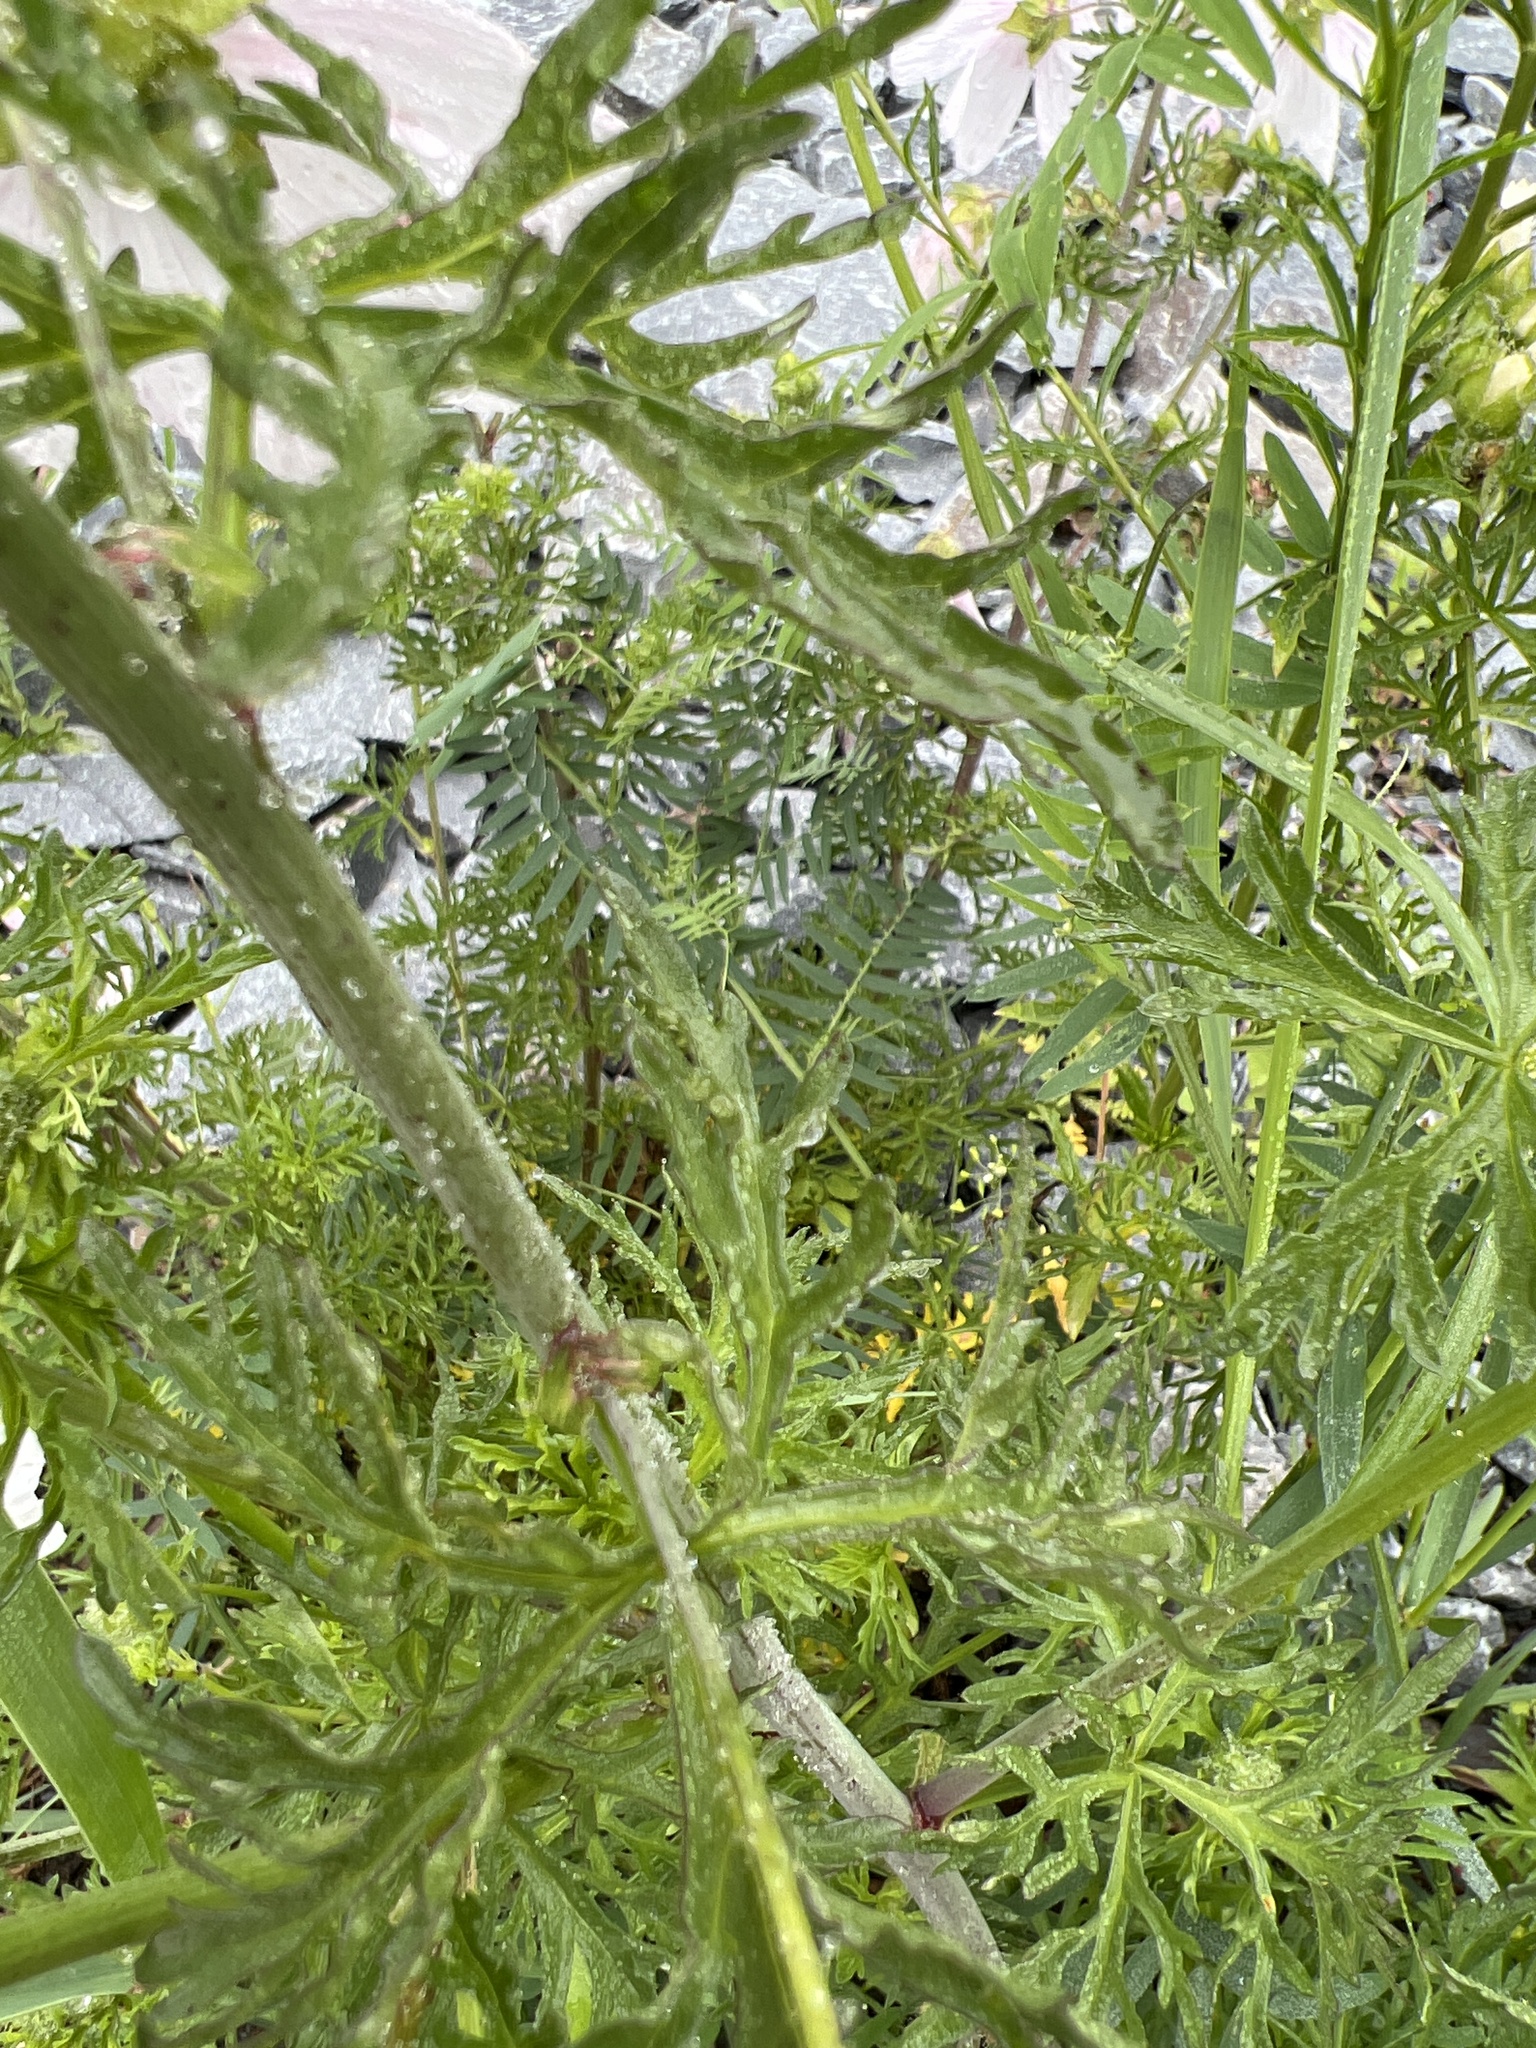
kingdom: Plantae
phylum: Tracheophyta
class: Magnoliopsida
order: Malvales
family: Malvaceae
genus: Malva
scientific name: Malva moschata
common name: Musk mallow
